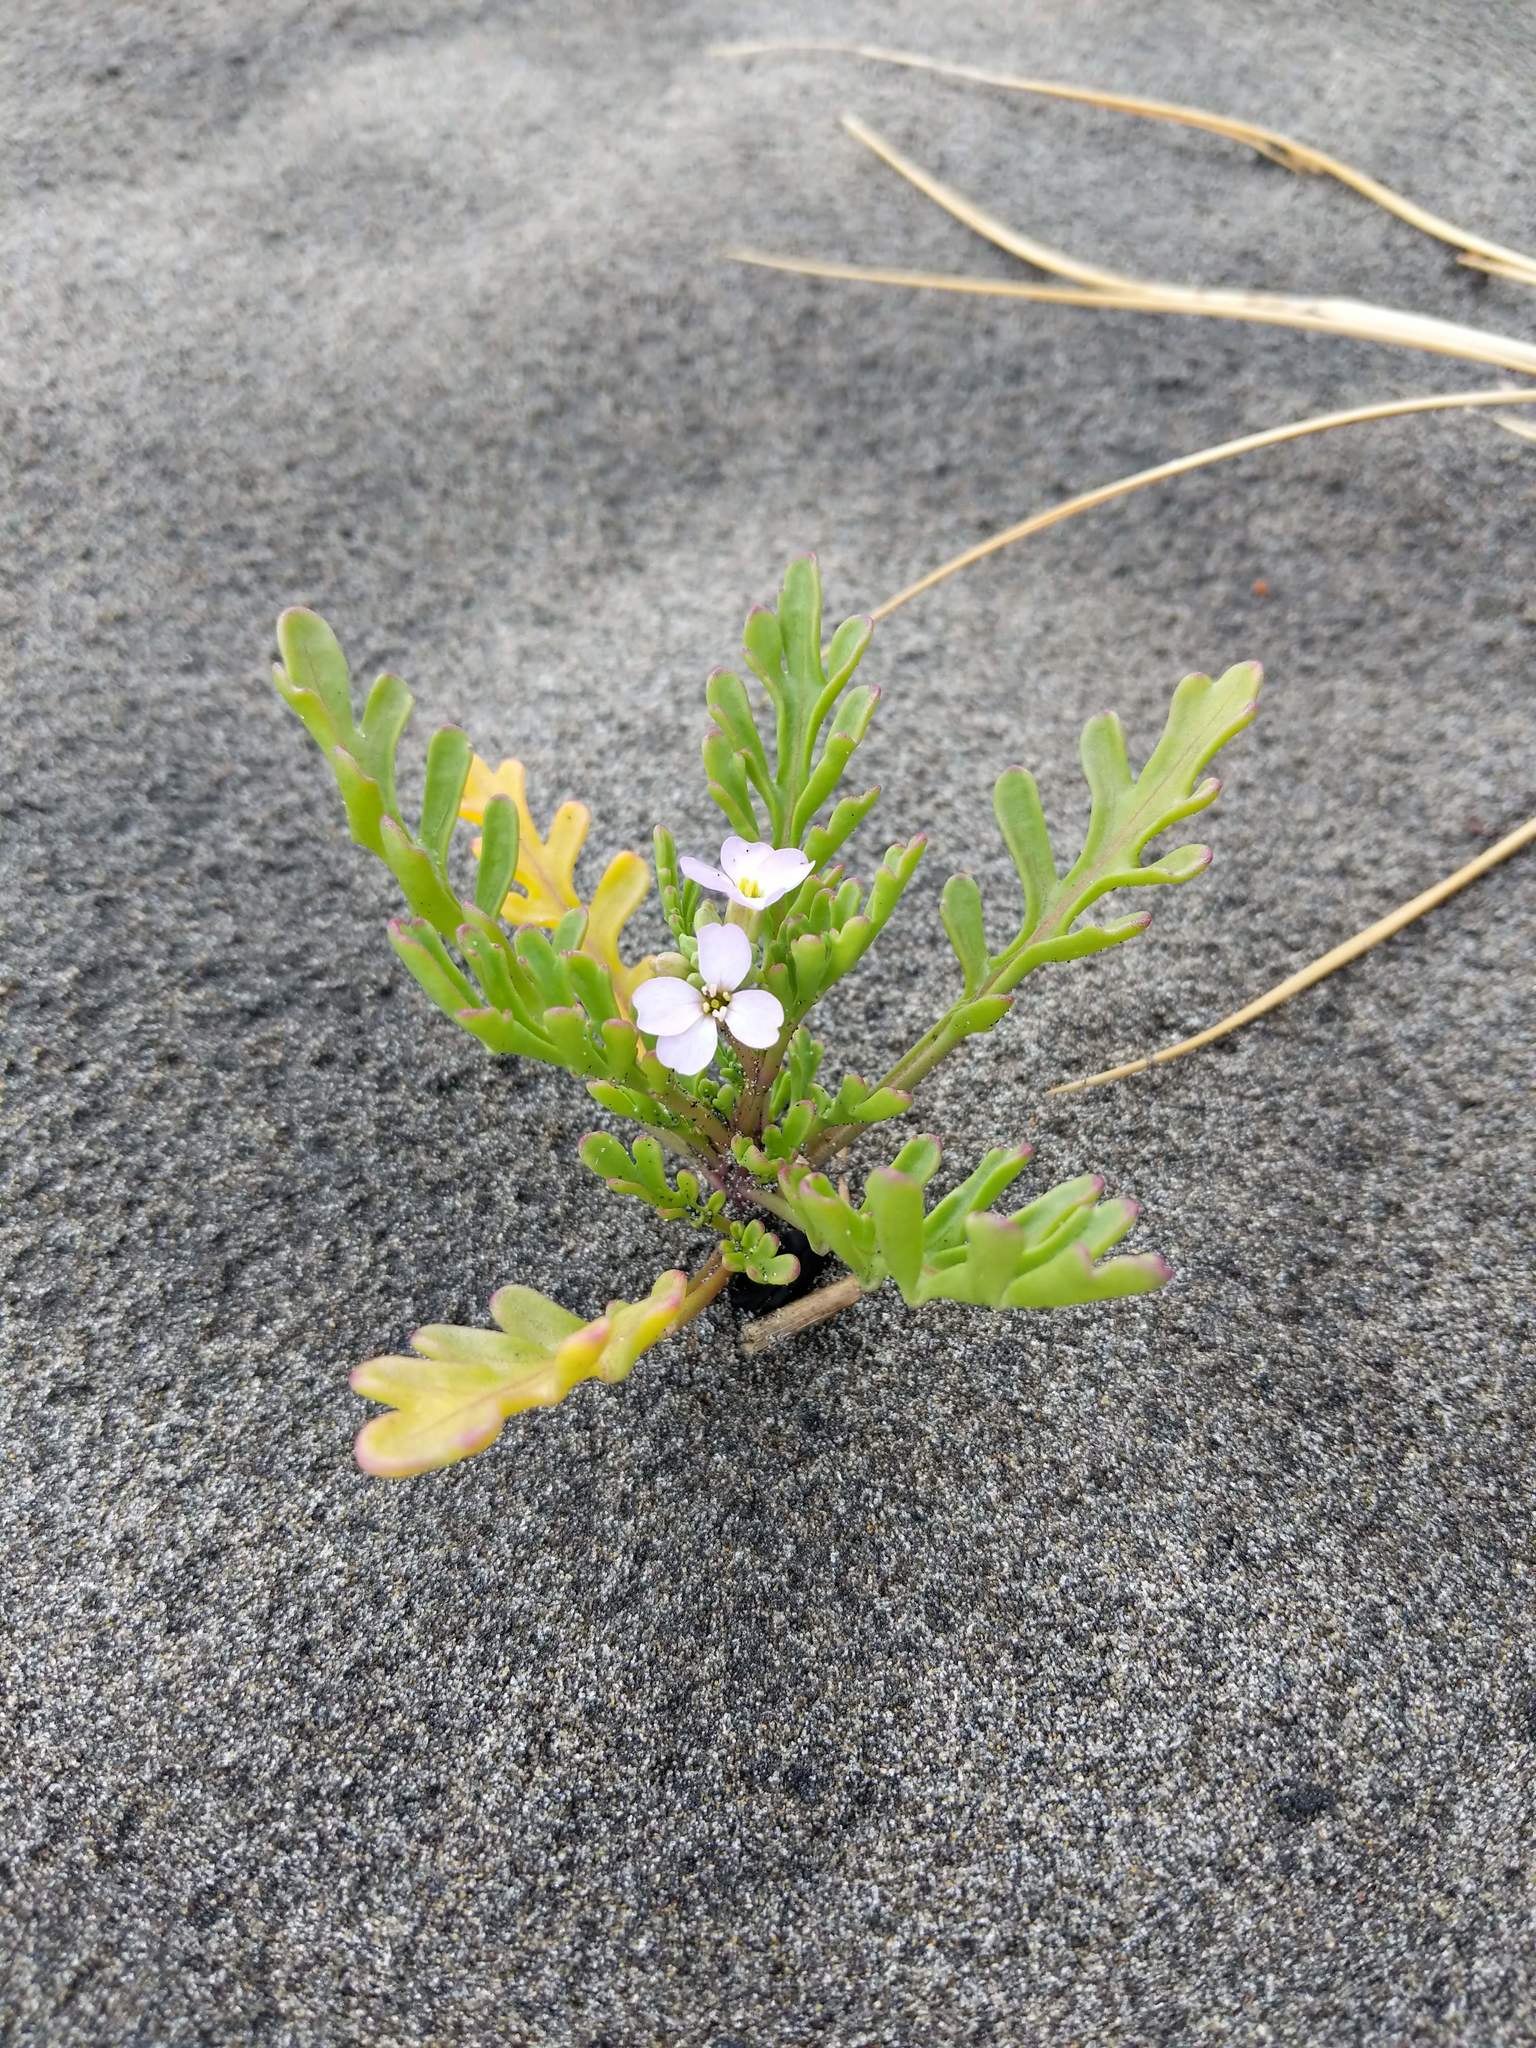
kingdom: Plantae
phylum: Tracheophyta
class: Magnoliopsida
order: Brassicales
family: Brassicaceae
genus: Cakile
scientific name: Cakile maritima
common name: Sea rocket
